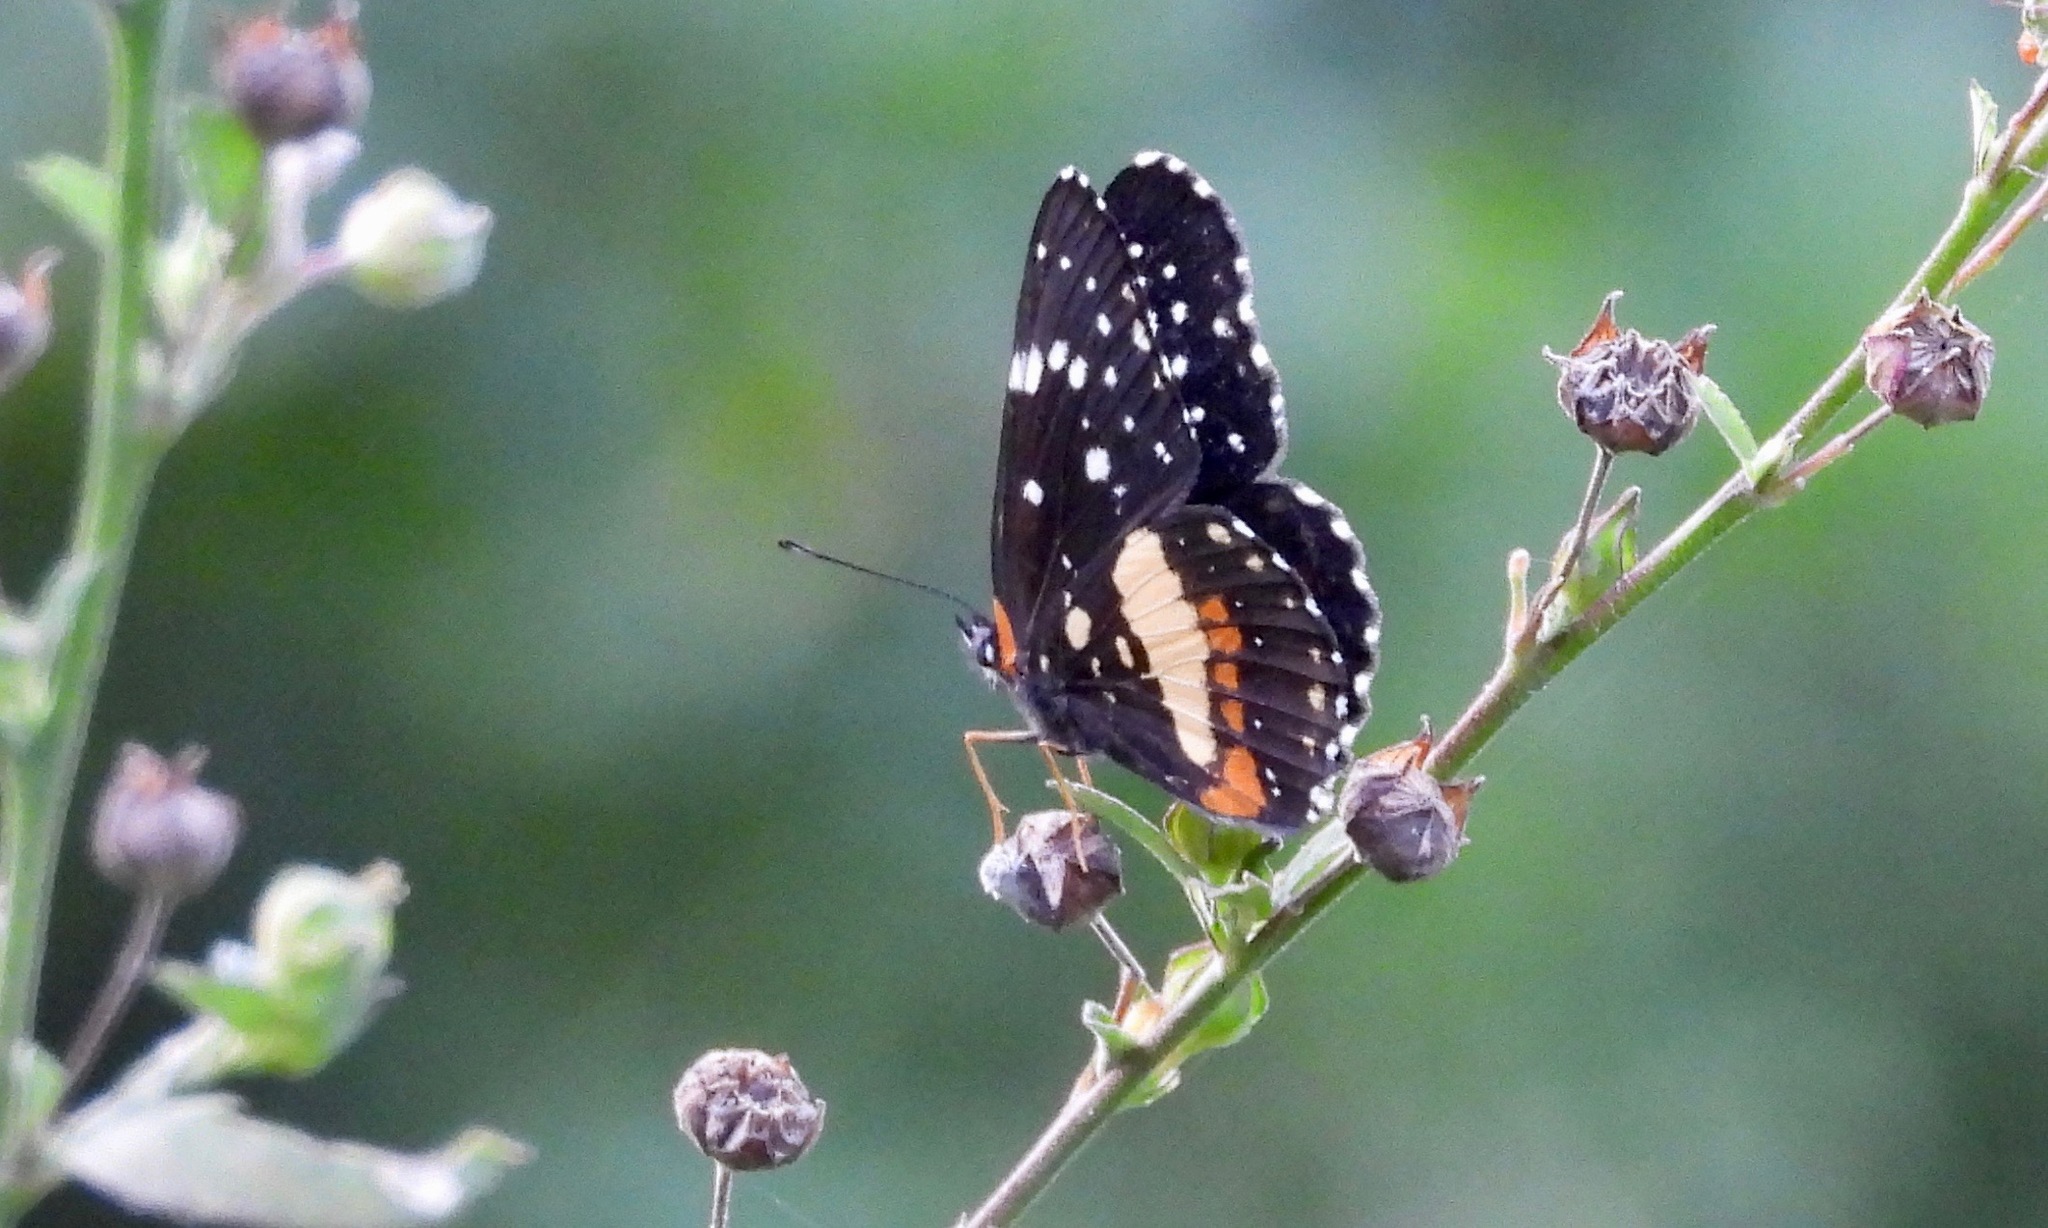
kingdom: Animalia
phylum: Arthropoda
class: Insecta
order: Lepidoptera
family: Nymphalidae
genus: Chlosyne
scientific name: Chlosyne lacinia
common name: Bordered patch
